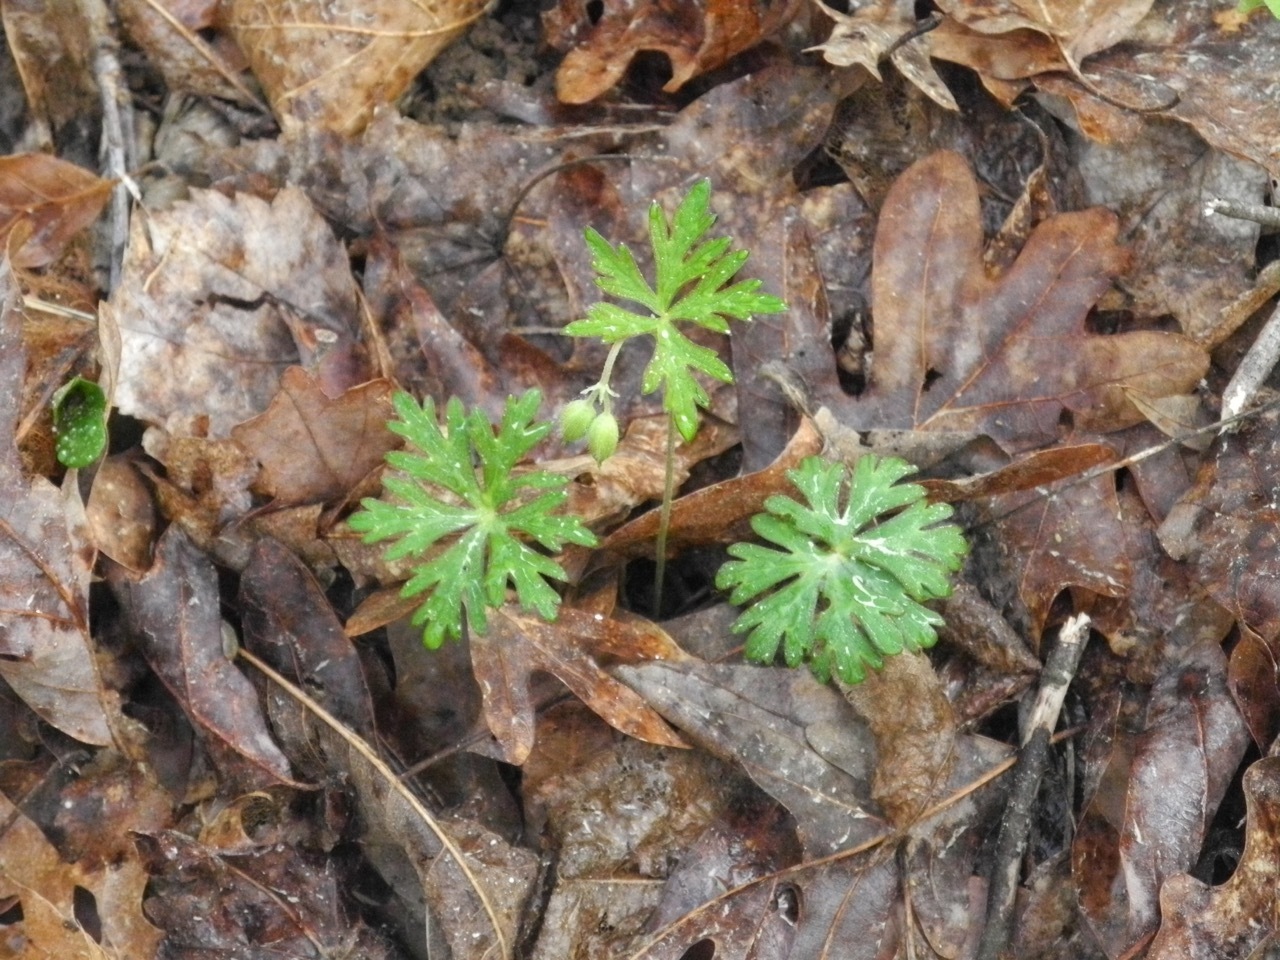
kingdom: Plantae
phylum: Tracheophyta
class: Magnoliopsida
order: Geraniales
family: Geraniaceae
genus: Geranium
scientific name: Geranium carolinianum
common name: Carolina crane's-bill
